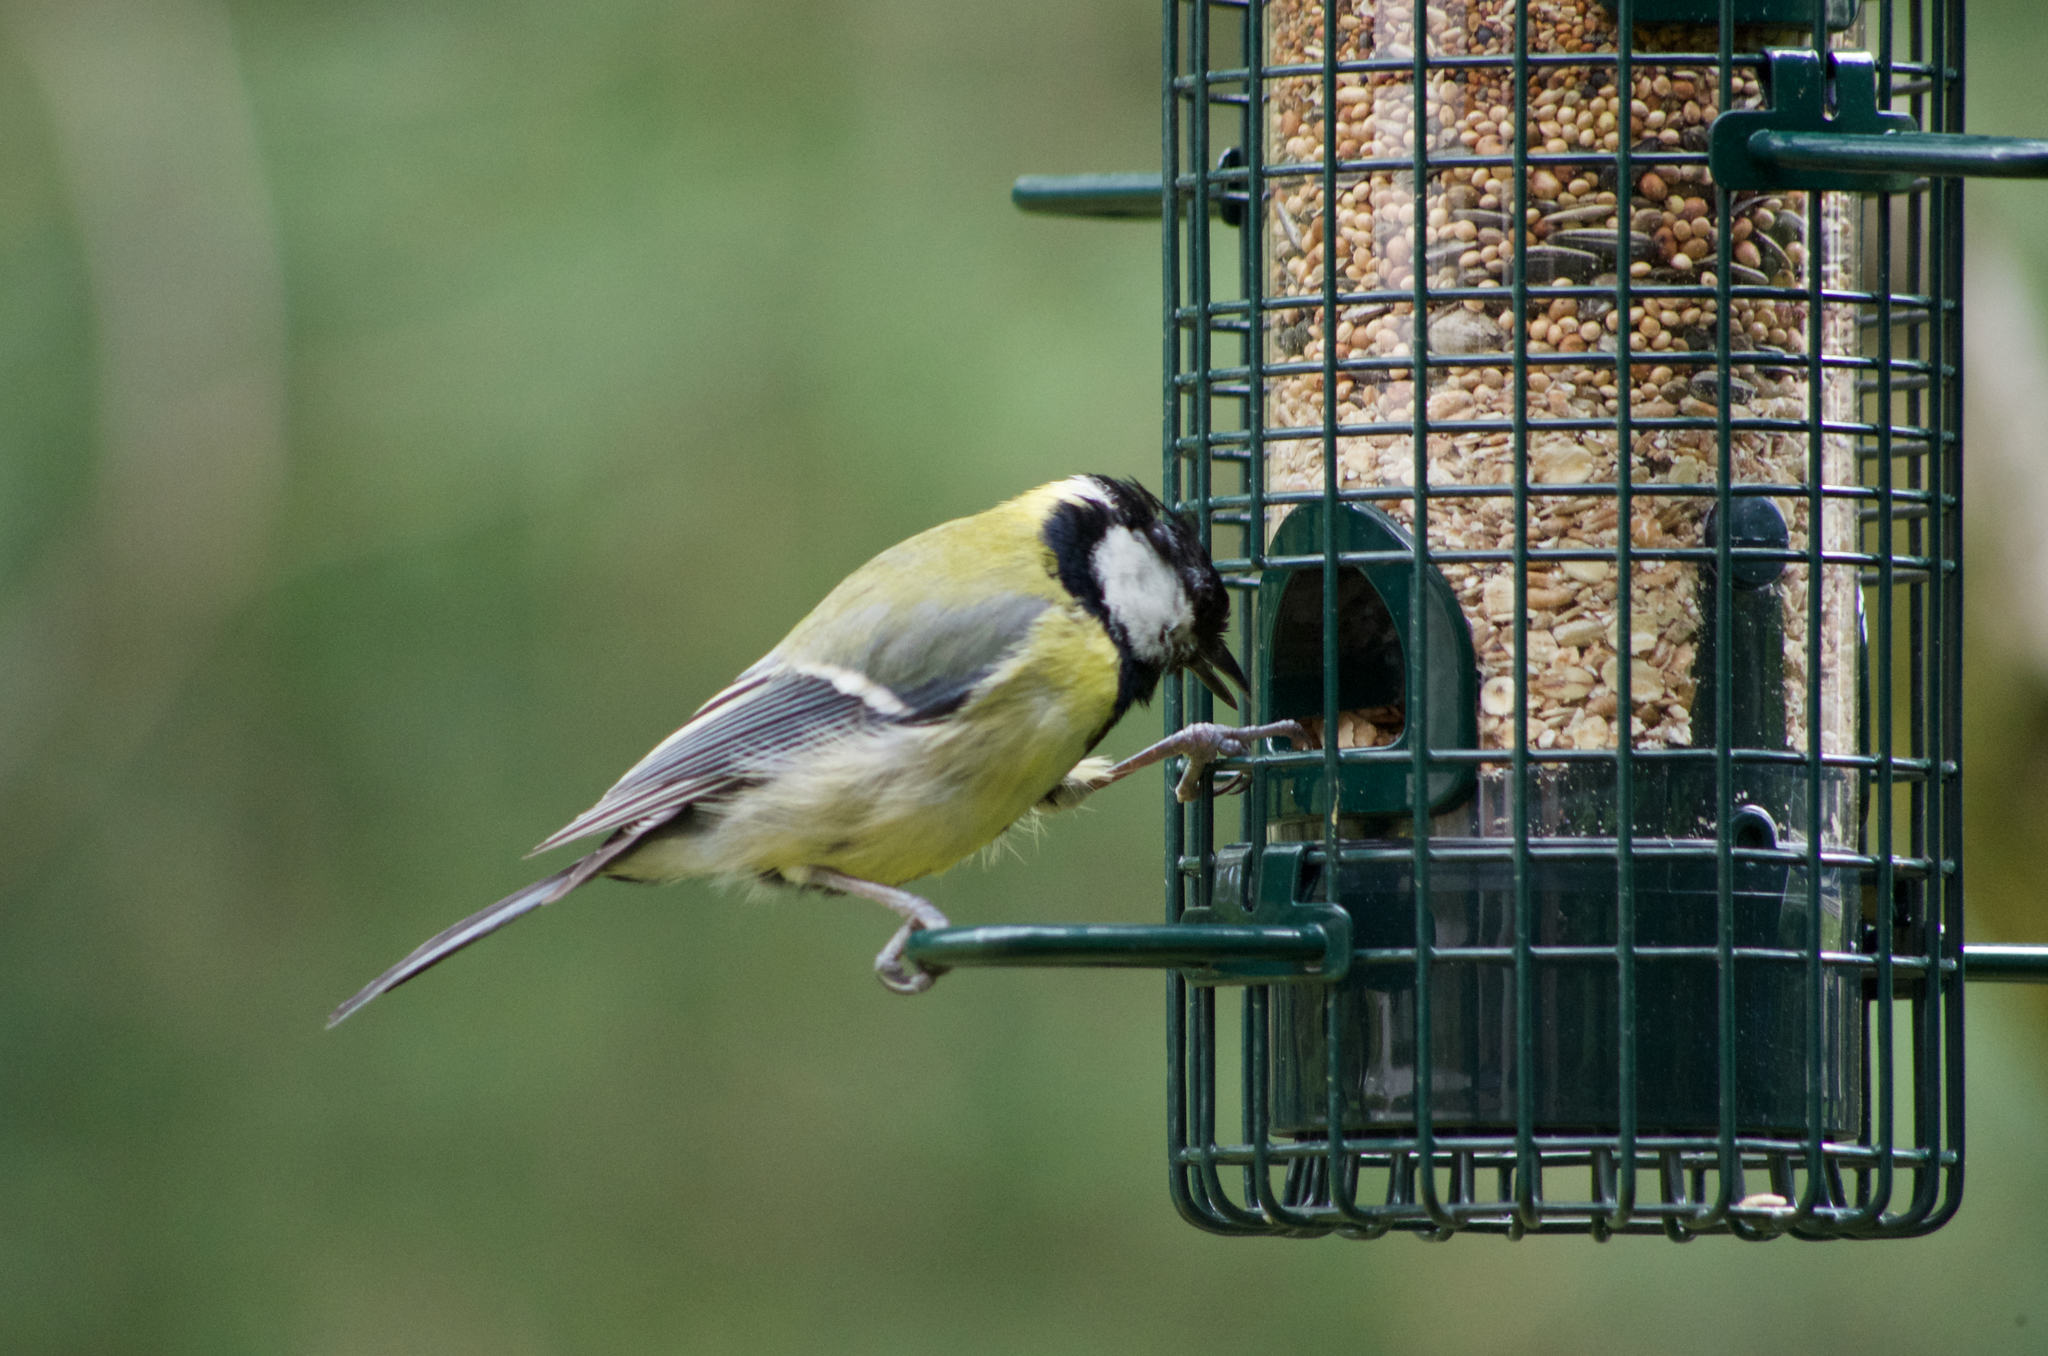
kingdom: Animalia
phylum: Chordata
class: Aves
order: Passeriformes
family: Paridae
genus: Parus
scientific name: Parus major
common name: Great tit
